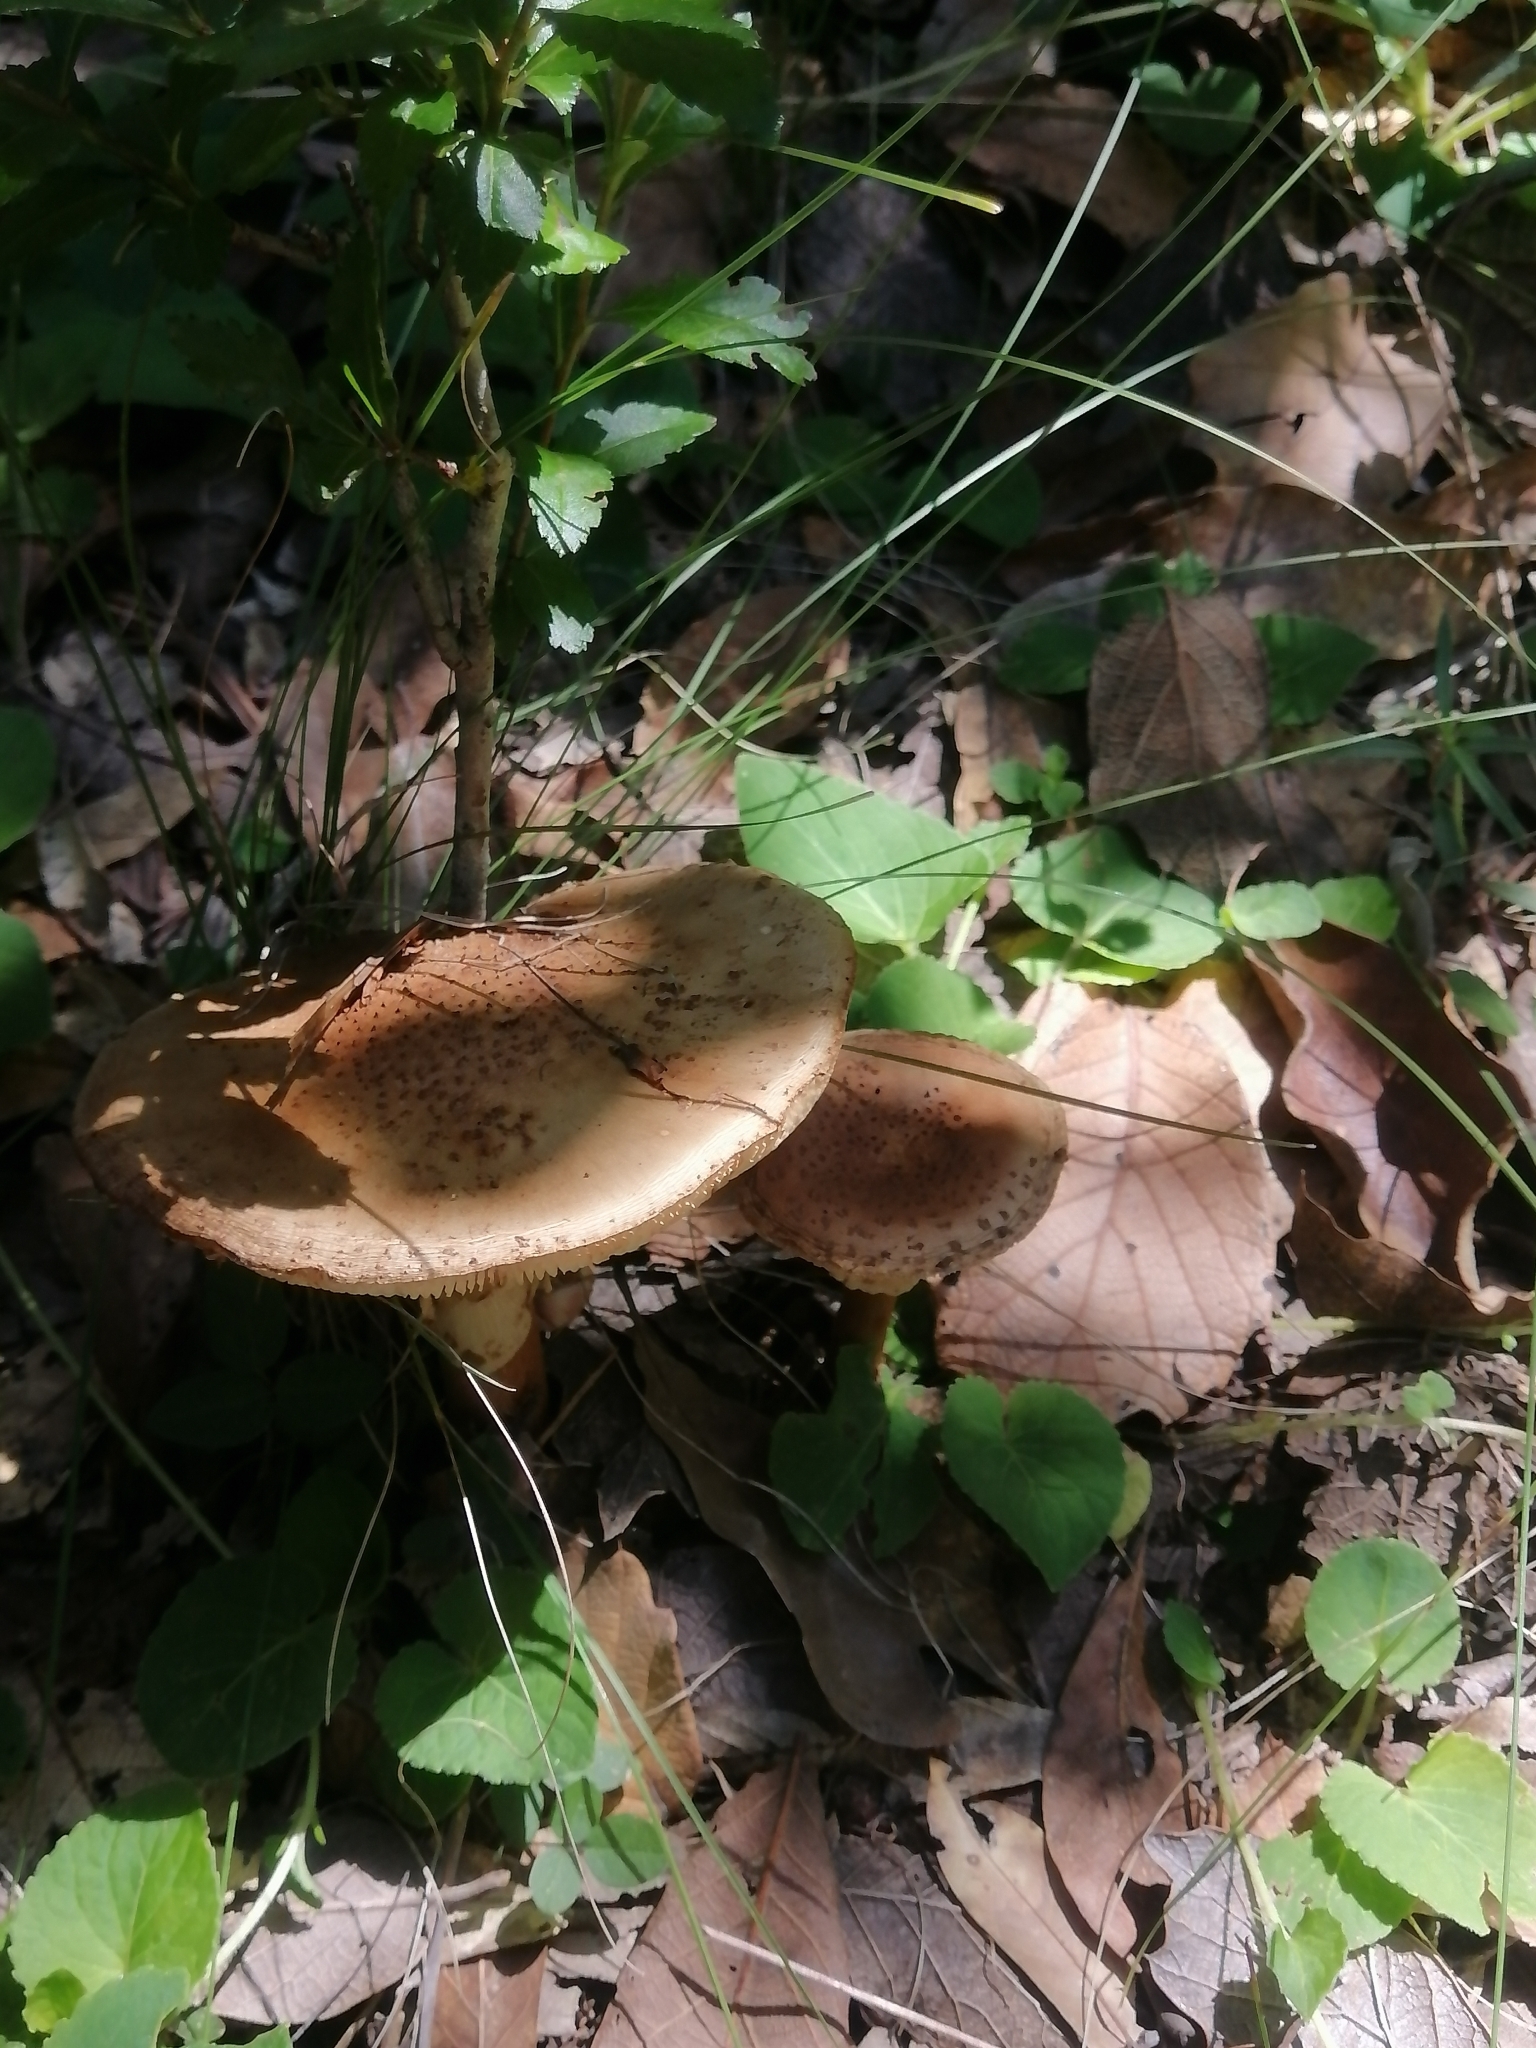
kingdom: Fungi
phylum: Basidiomycota
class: Agaricomycetes
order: Agaricales
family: Amanitaceae
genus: Amanita
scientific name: Amanita rubescens
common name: Blusher
